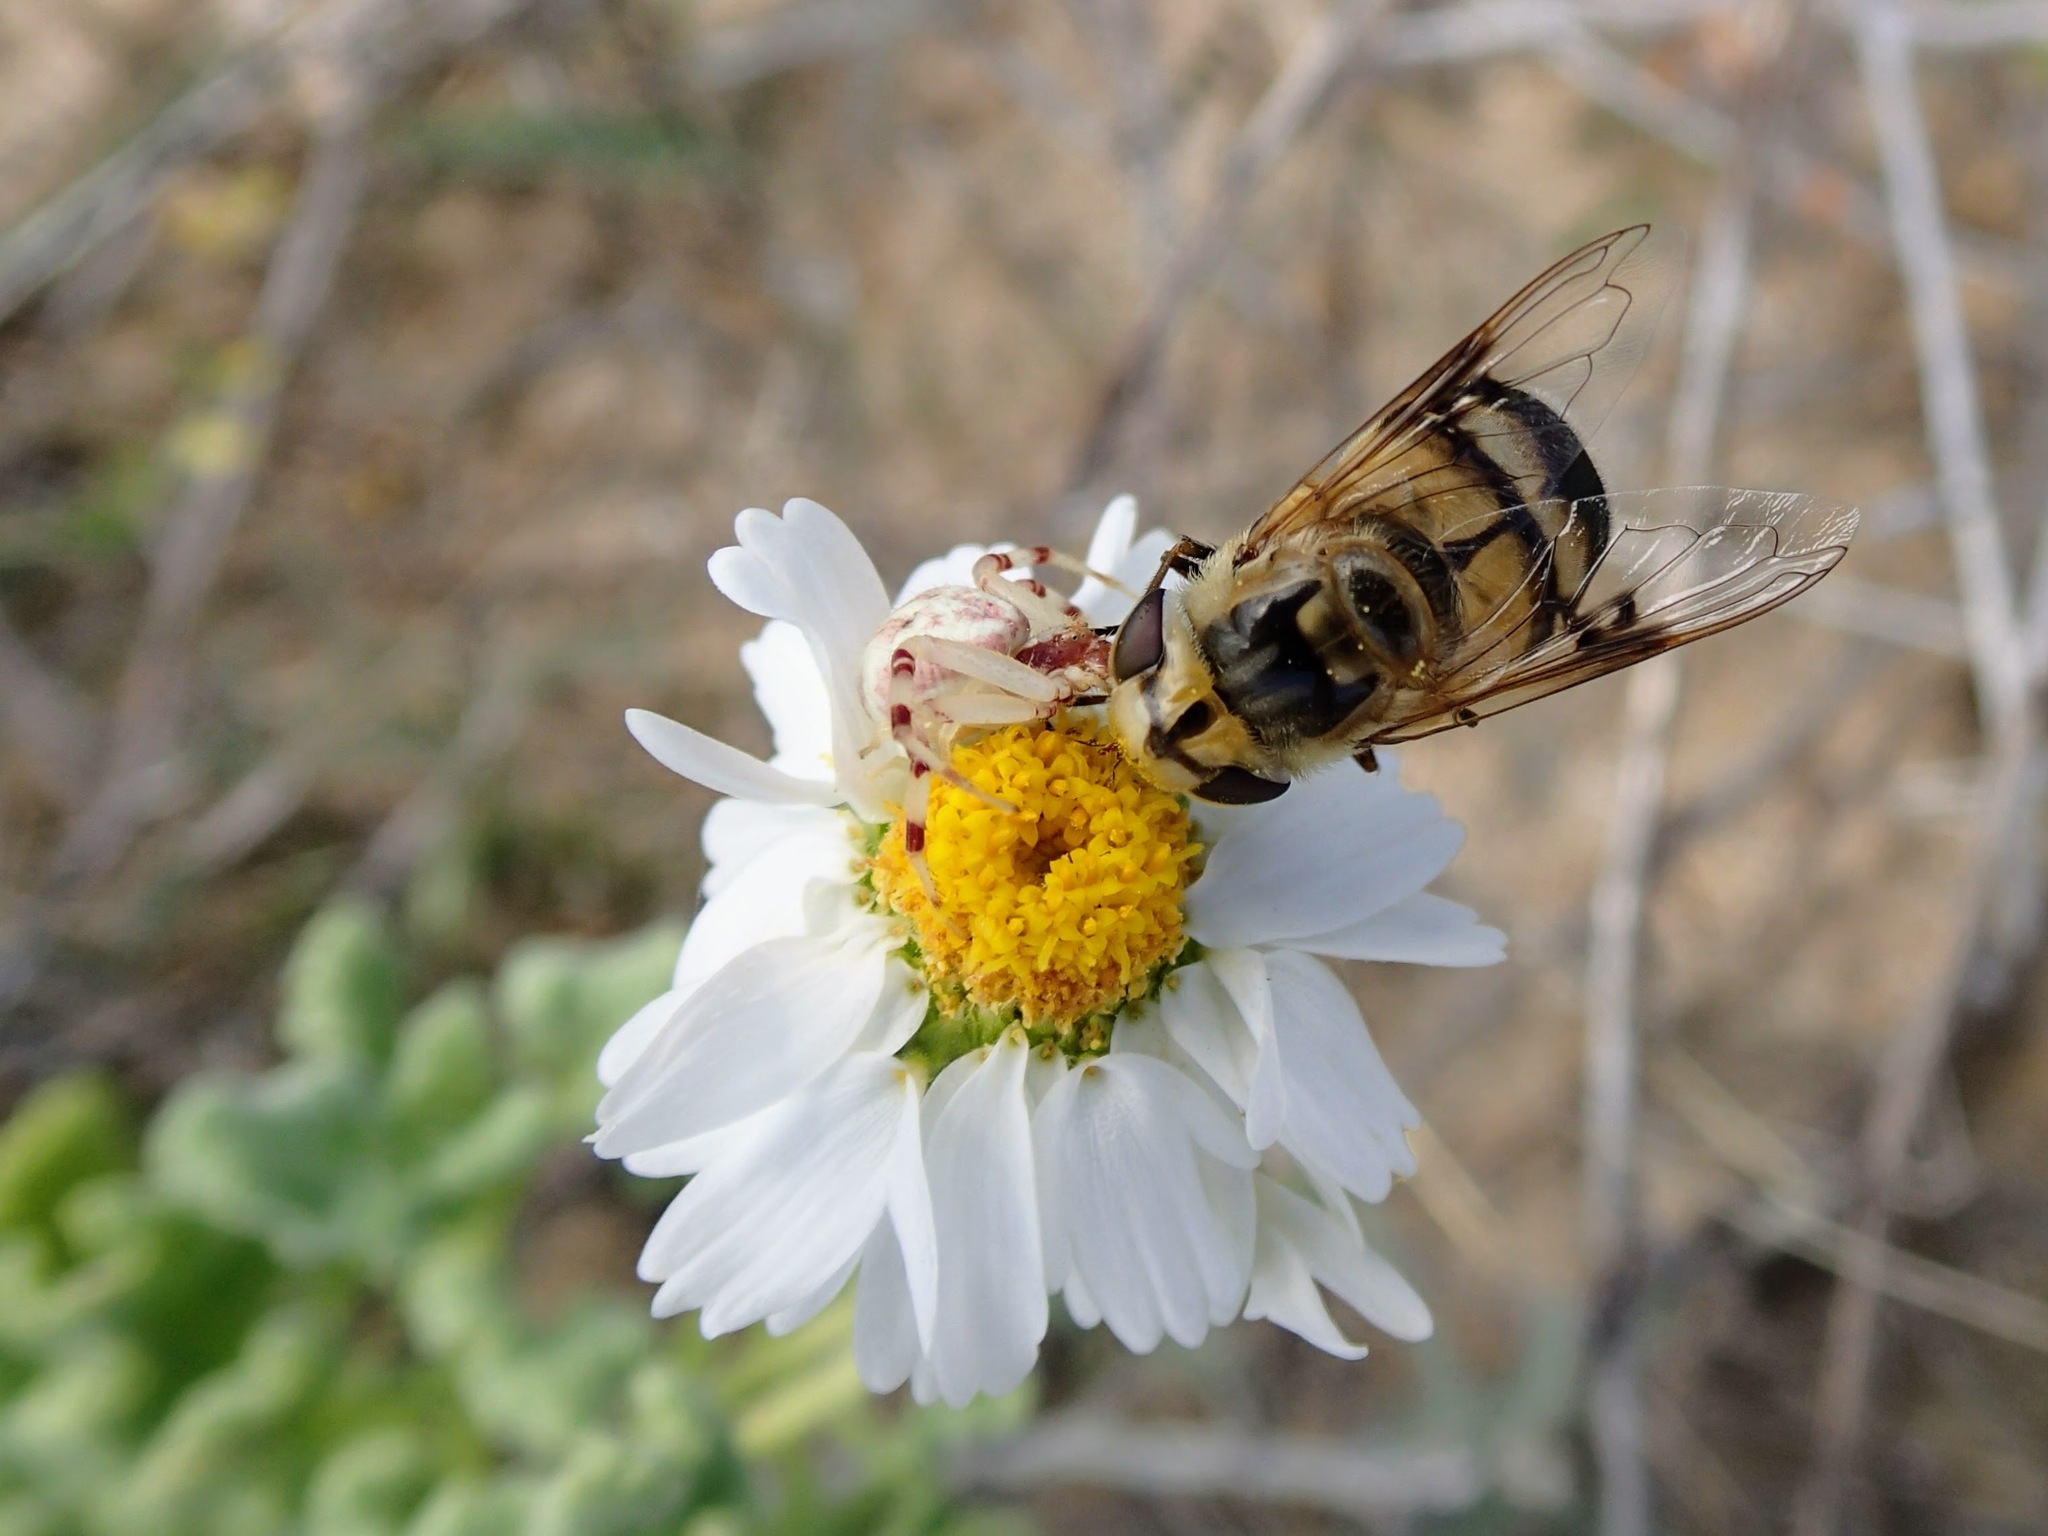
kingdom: Animalia
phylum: Arthropoda
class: Insecta
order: Diptera
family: Syrphidae
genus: Copestylum
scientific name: Copestylum apiciferum
